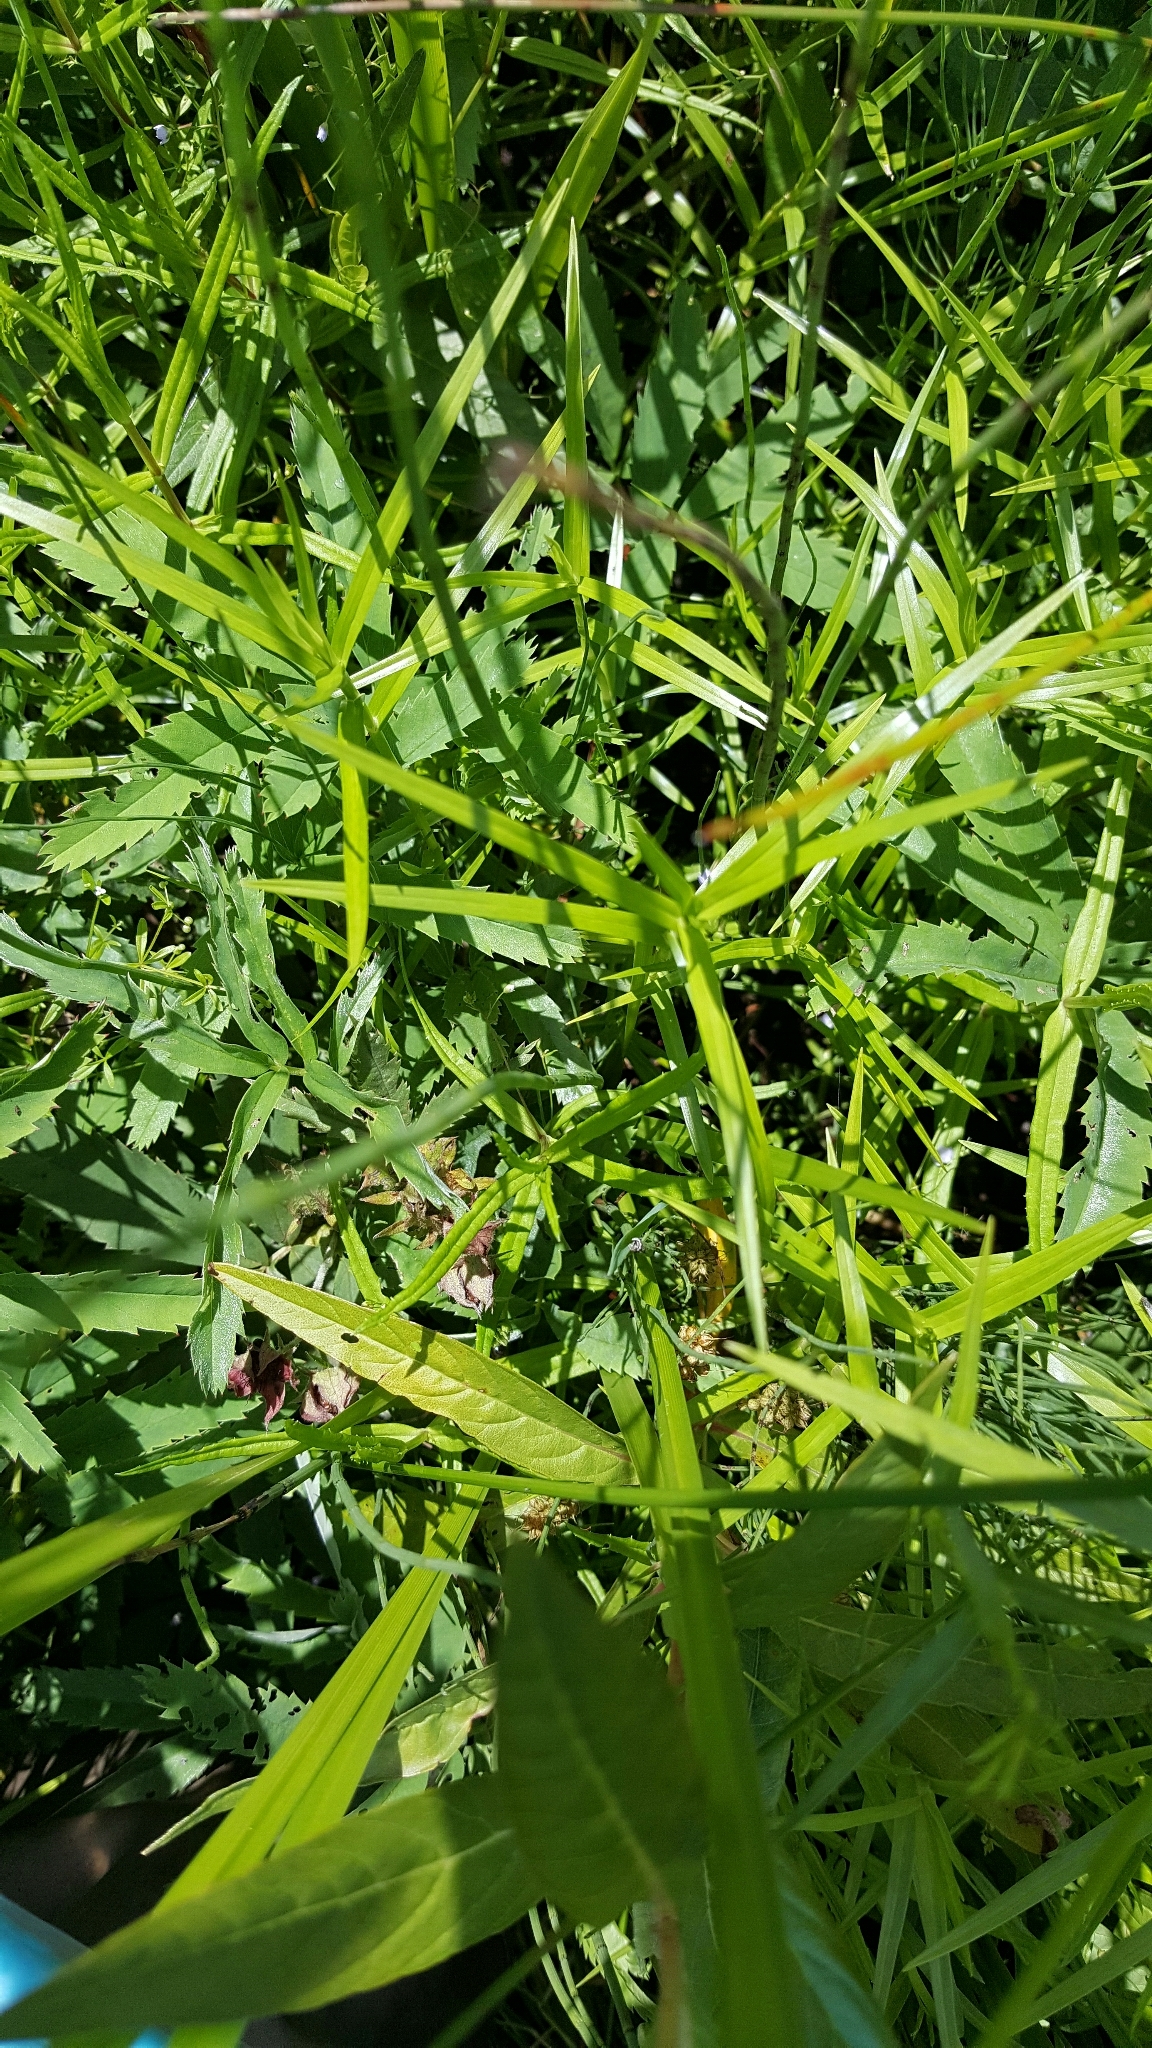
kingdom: Plantae
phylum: Tracheophyta
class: Liliopsida
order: Poales
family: Cyperaceae
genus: Dulichium
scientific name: Dulichium arundinaceum
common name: Three-way sedge
